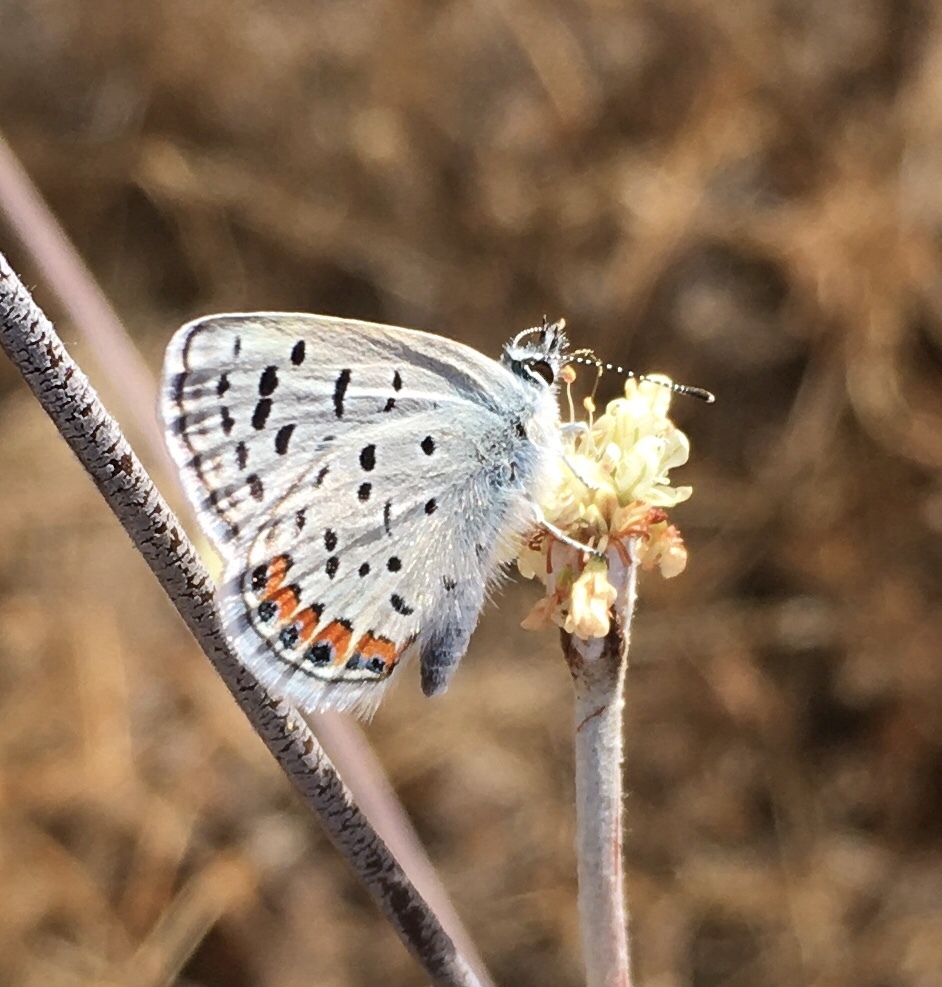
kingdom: Animalia
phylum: Arthropoda
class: Insecta
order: Lepidoptera
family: Lycaenidae
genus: Icaricia
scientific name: Icaricia acmon
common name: Acmon blue
